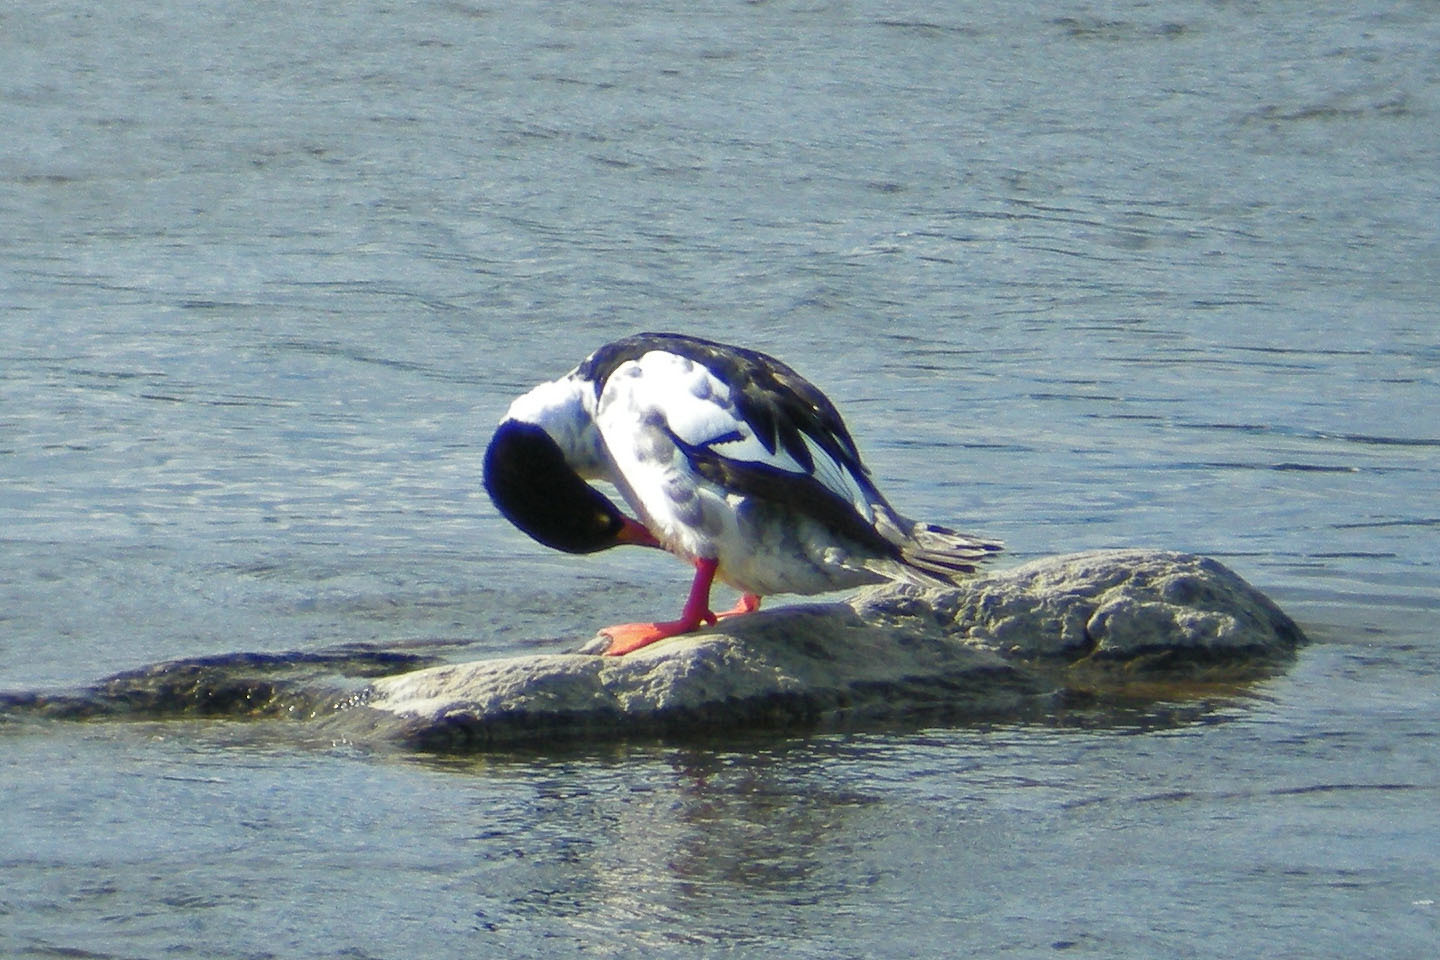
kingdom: Animalia
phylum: Chordata
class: Aves
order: Anseriformes
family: Anatidae
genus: Mergus
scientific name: Mergus merganser
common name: Common merganser
